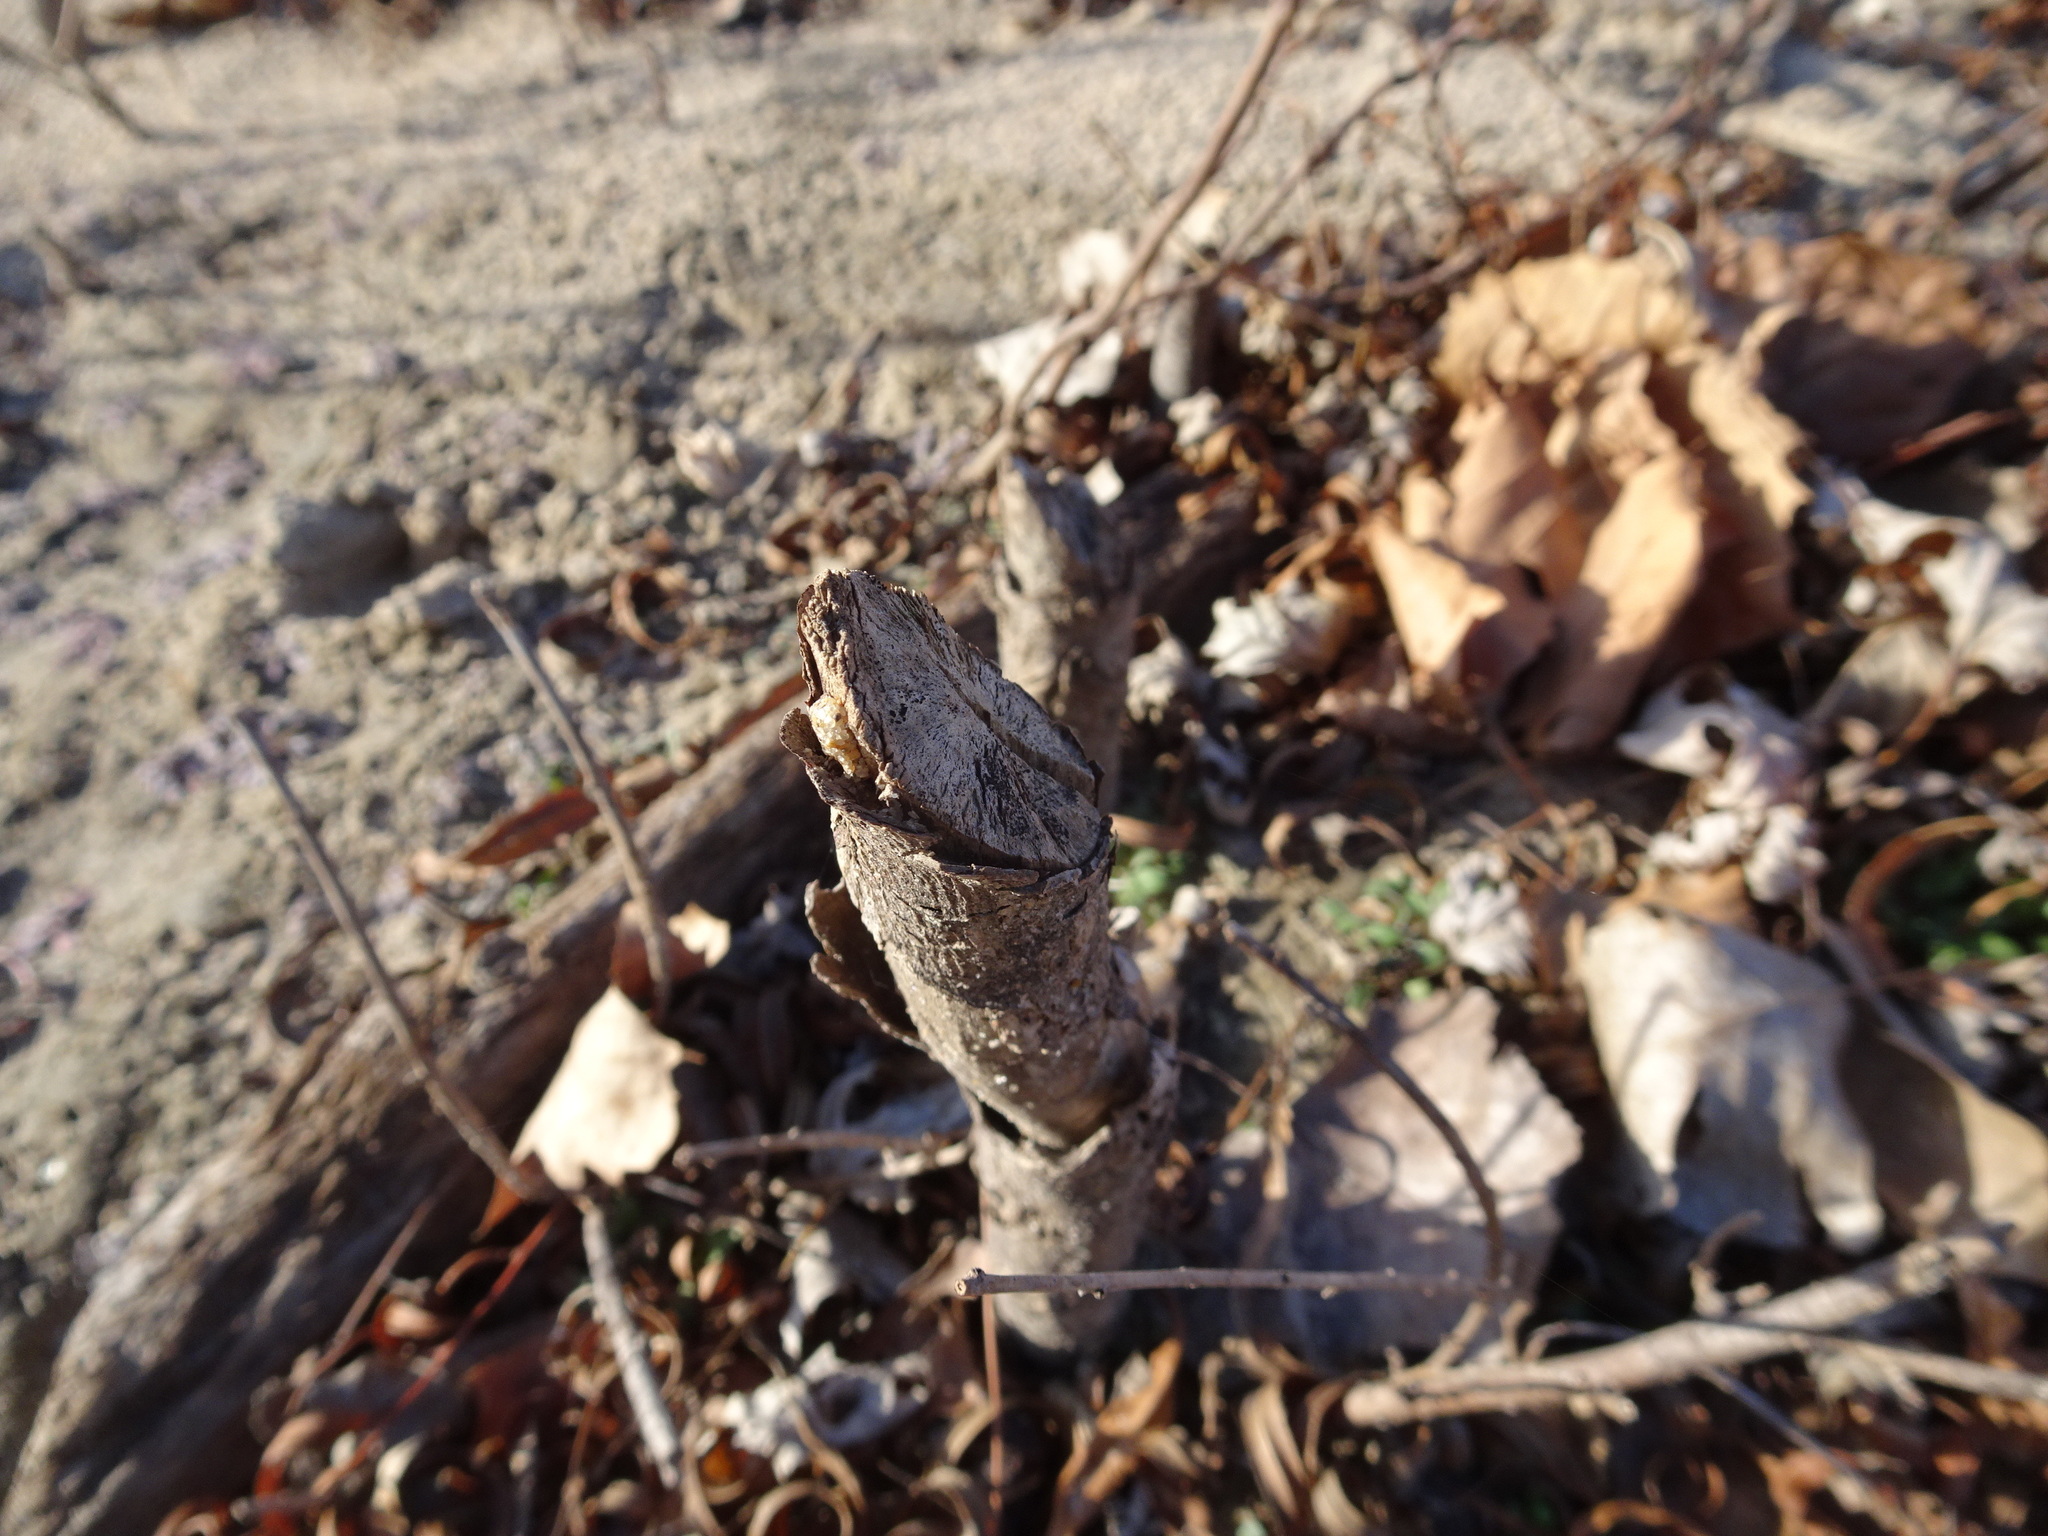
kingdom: Animalia
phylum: Chordata
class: Mammalia
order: Rodentia
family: Castoridae
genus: Castor
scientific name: Castor canadensis
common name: American beaver
